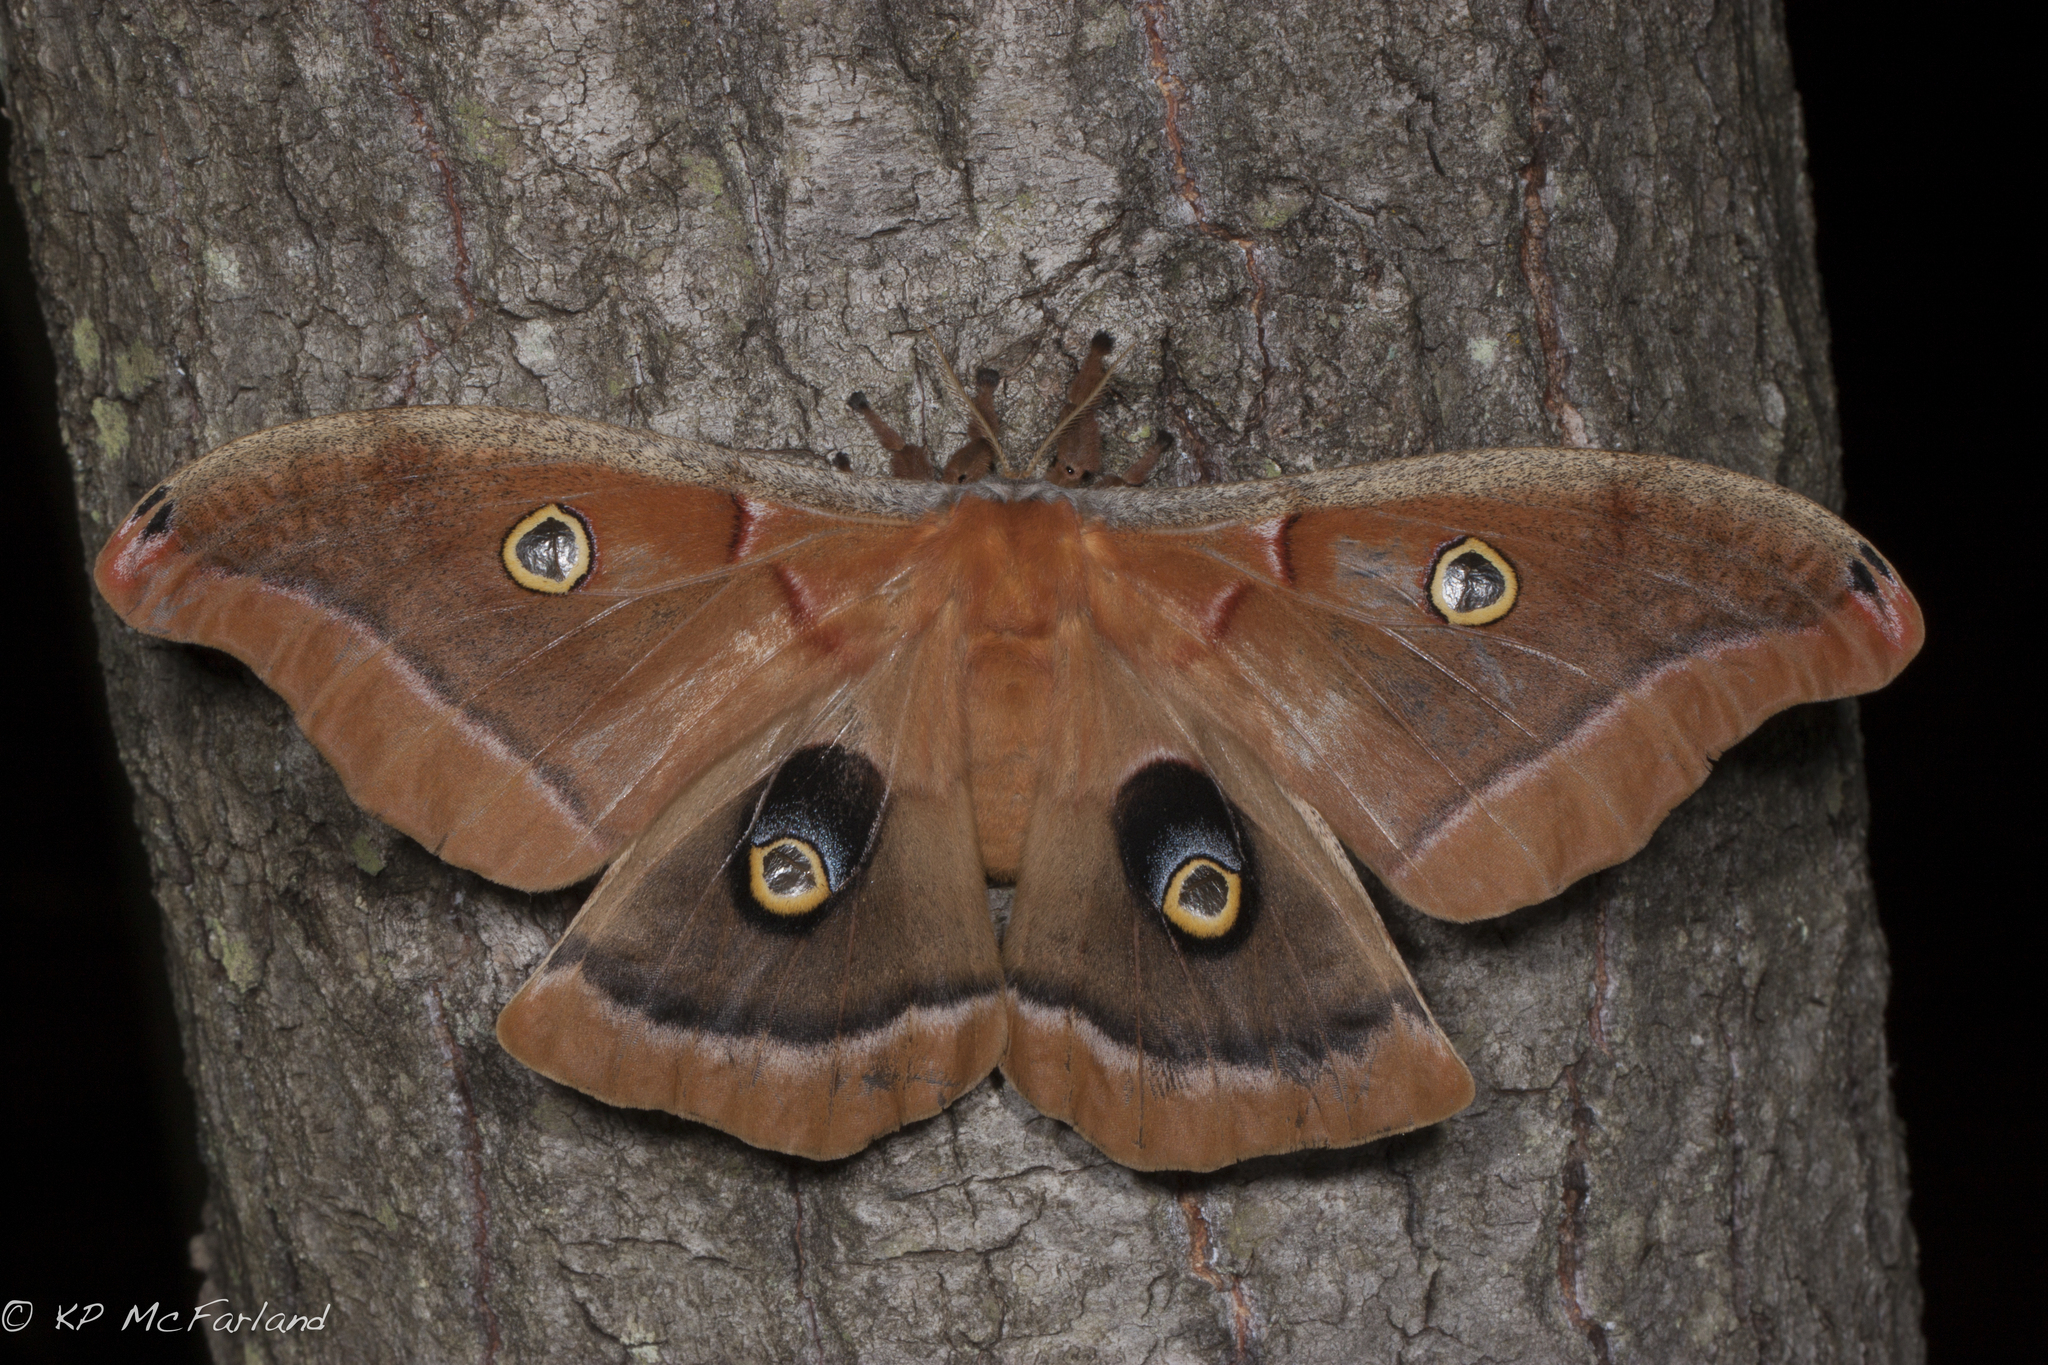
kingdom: Animalia
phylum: Arthropoda
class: Insecta
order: Lepidoptera
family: Saturniidae
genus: Antheraea
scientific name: Antheraea polyphemus
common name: Polyphemus moth
